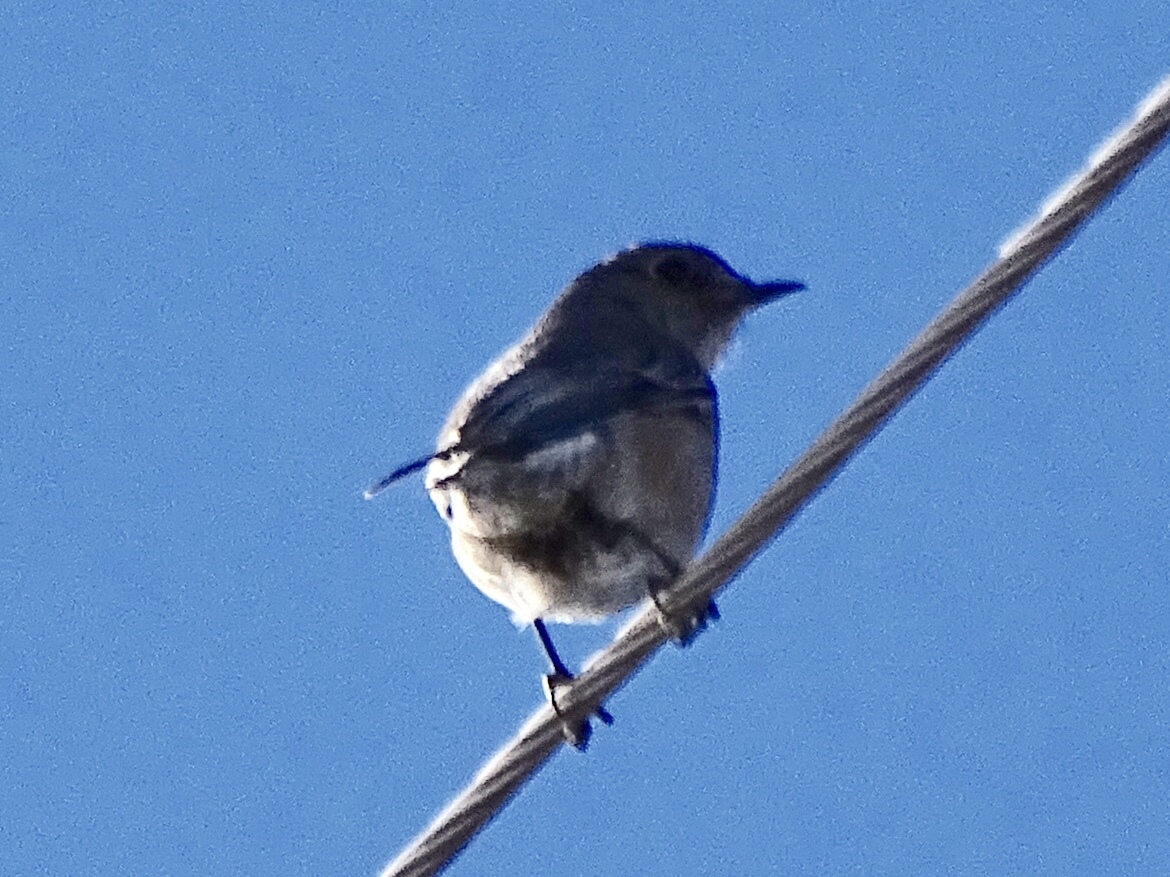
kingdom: Animalia
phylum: Chordata
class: Aves
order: Passeriformes
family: Turdidae
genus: Sialia
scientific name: Sialia mexicana
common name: Western bluebird
